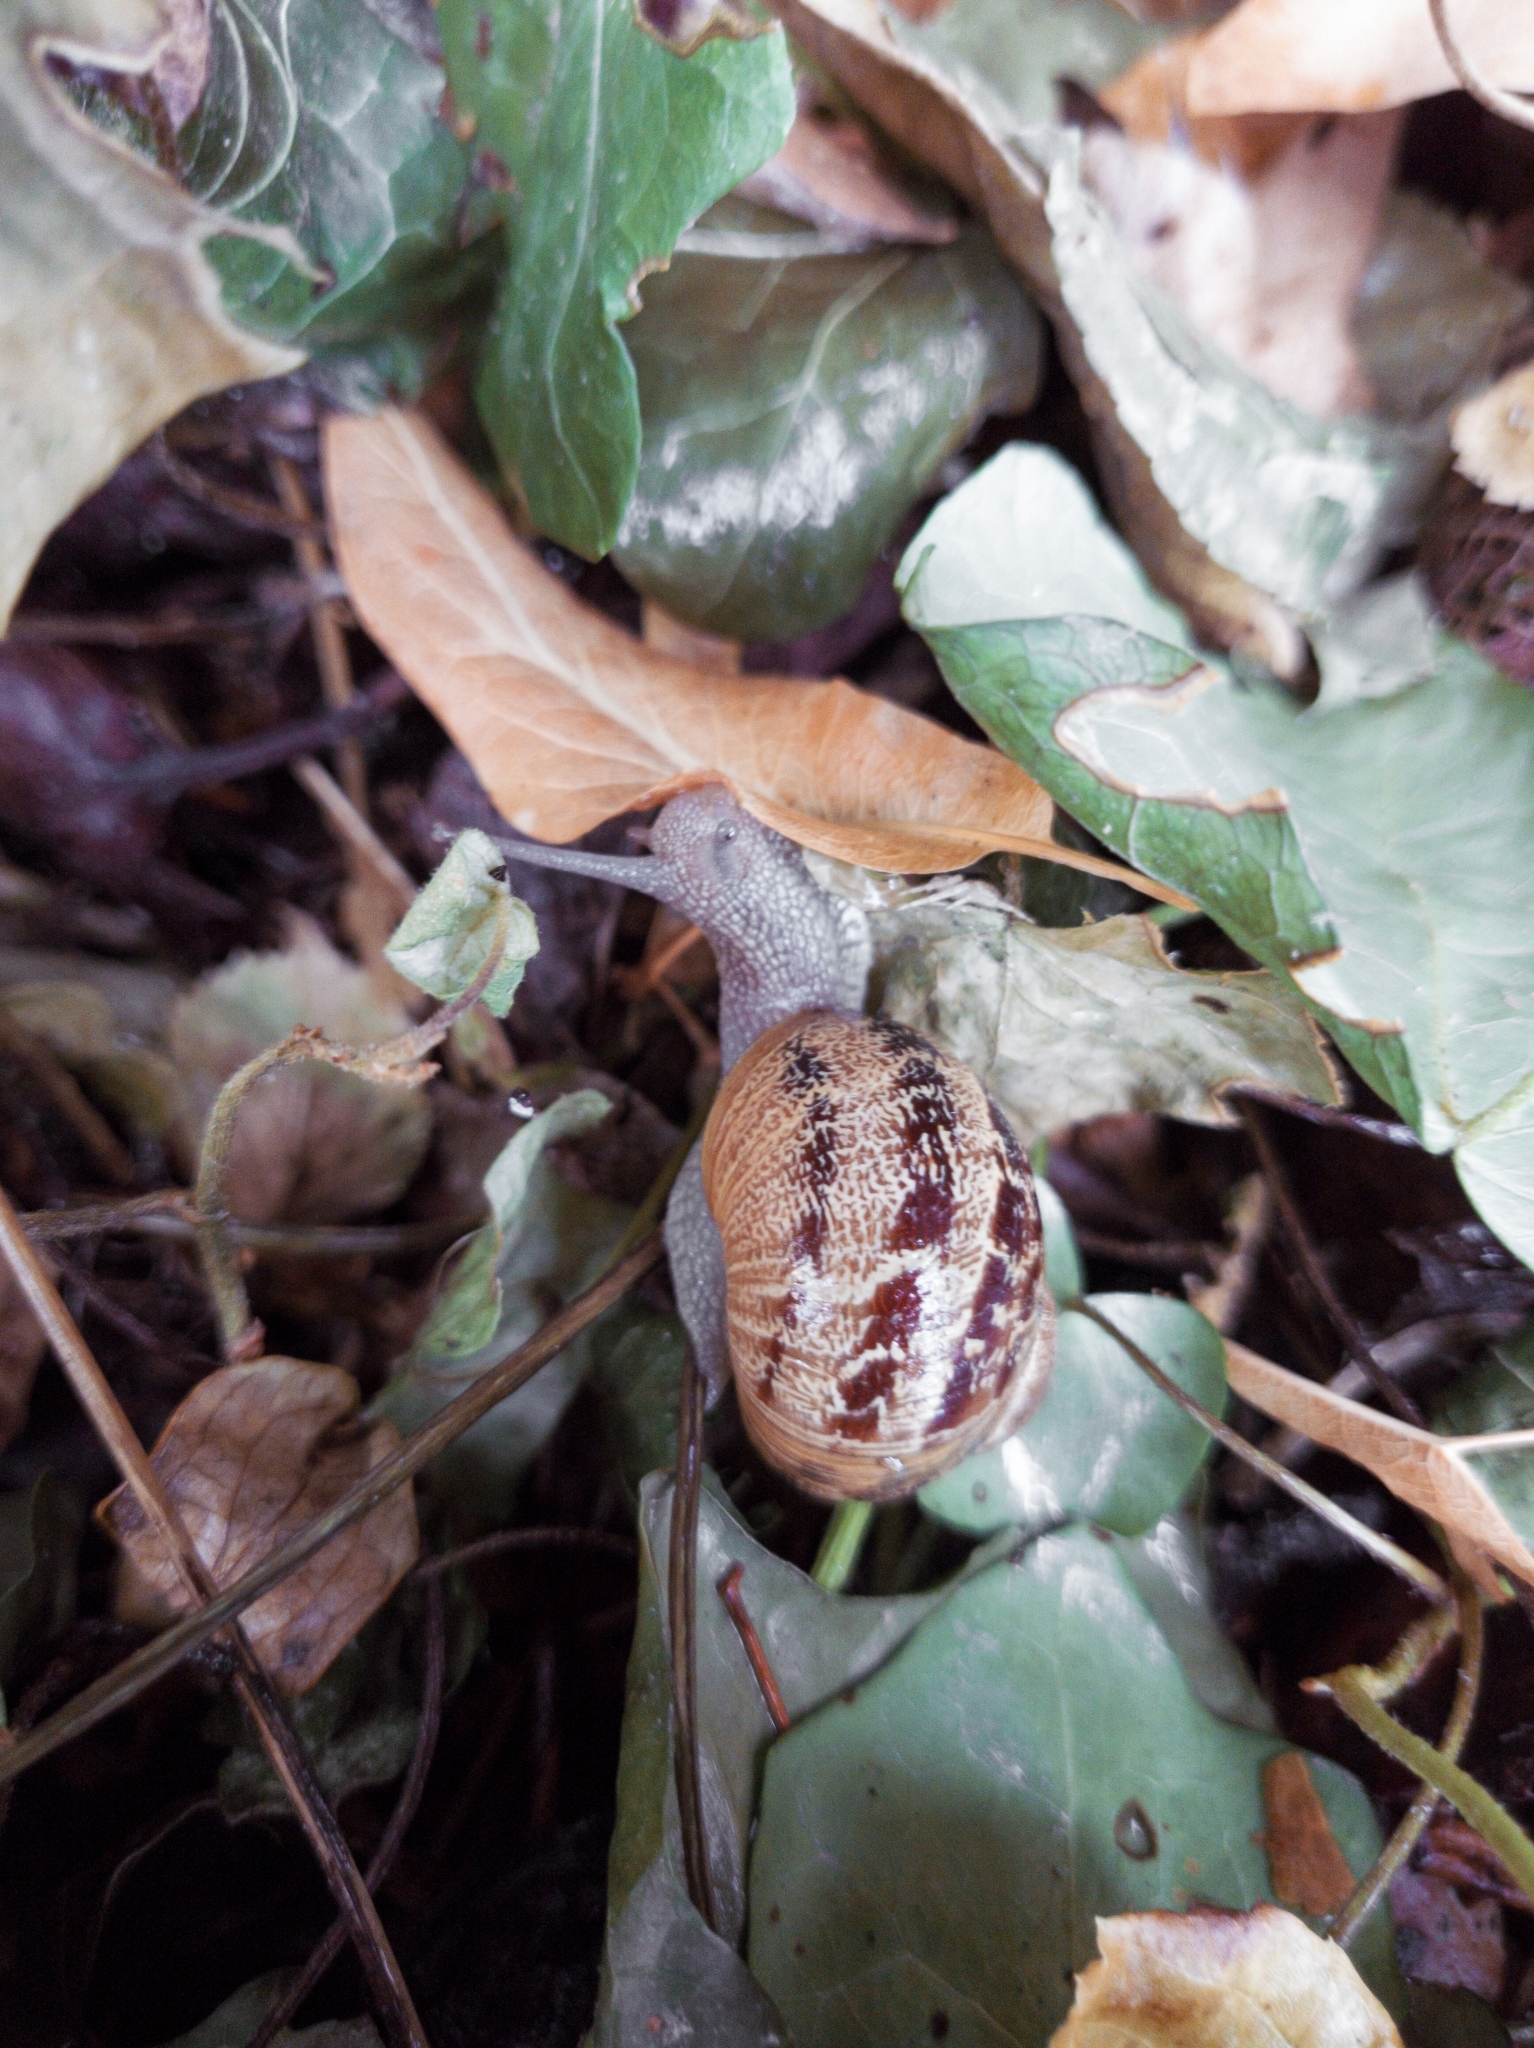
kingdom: Animalia
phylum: Mollusca
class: Gastropoda
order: Stylommatophora
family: Helicidae
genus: Cornu
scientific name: Cornu aspersum
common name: Brown garden snail
